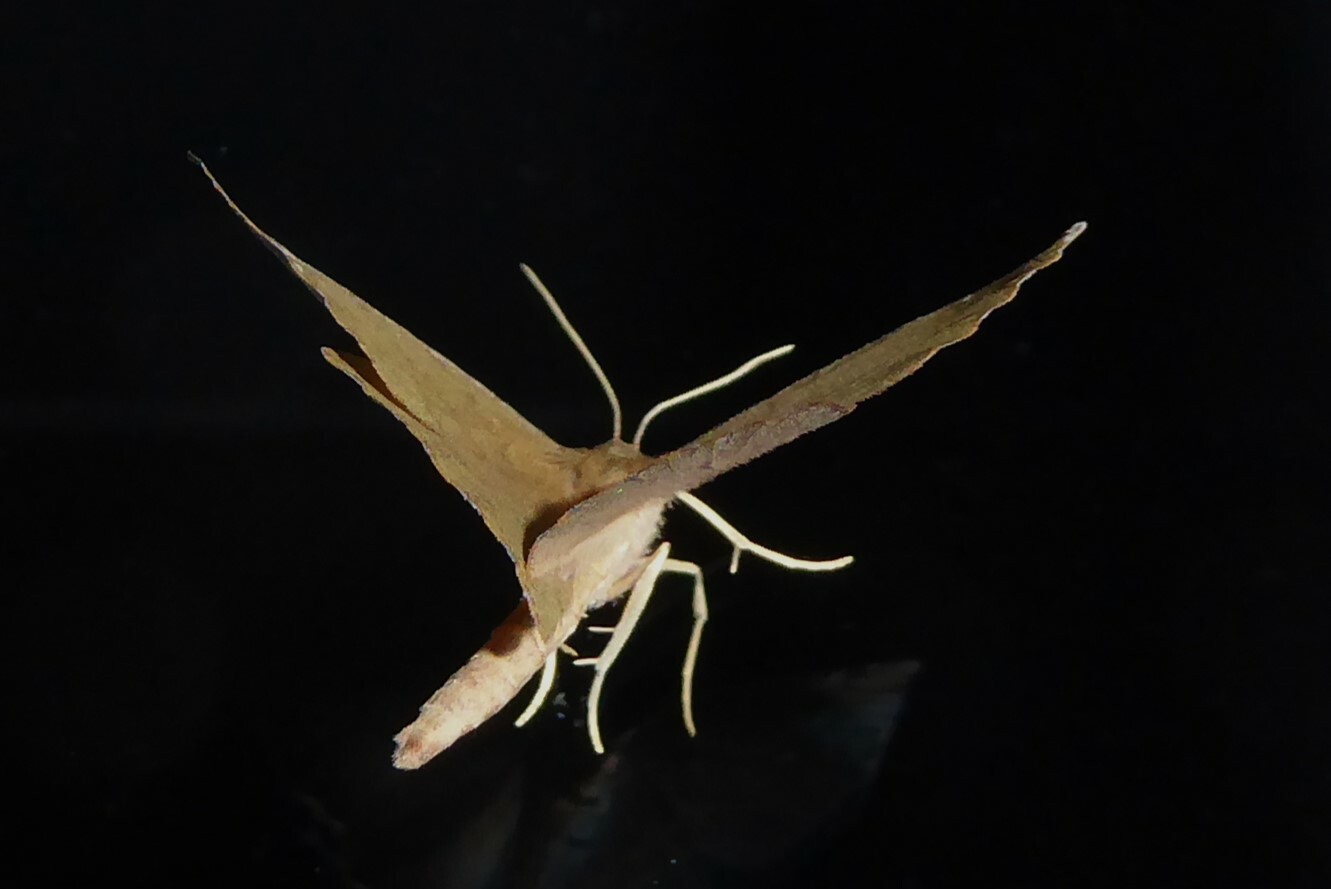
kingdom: Animalia
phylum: Arthropoda
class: Insecta
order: Lepidoptera
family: Geometridae
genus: Xyridacma
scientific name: Xyridacma ustaria
